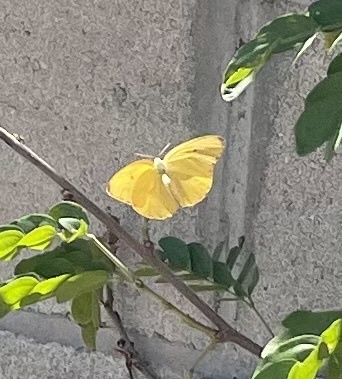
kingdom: Animalia
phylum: Arthropoda
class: Insecta
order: Lepidoptera
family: Pieridae
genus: Phoebis
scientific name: Phoebis agarithe
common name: Large orange sulphur
